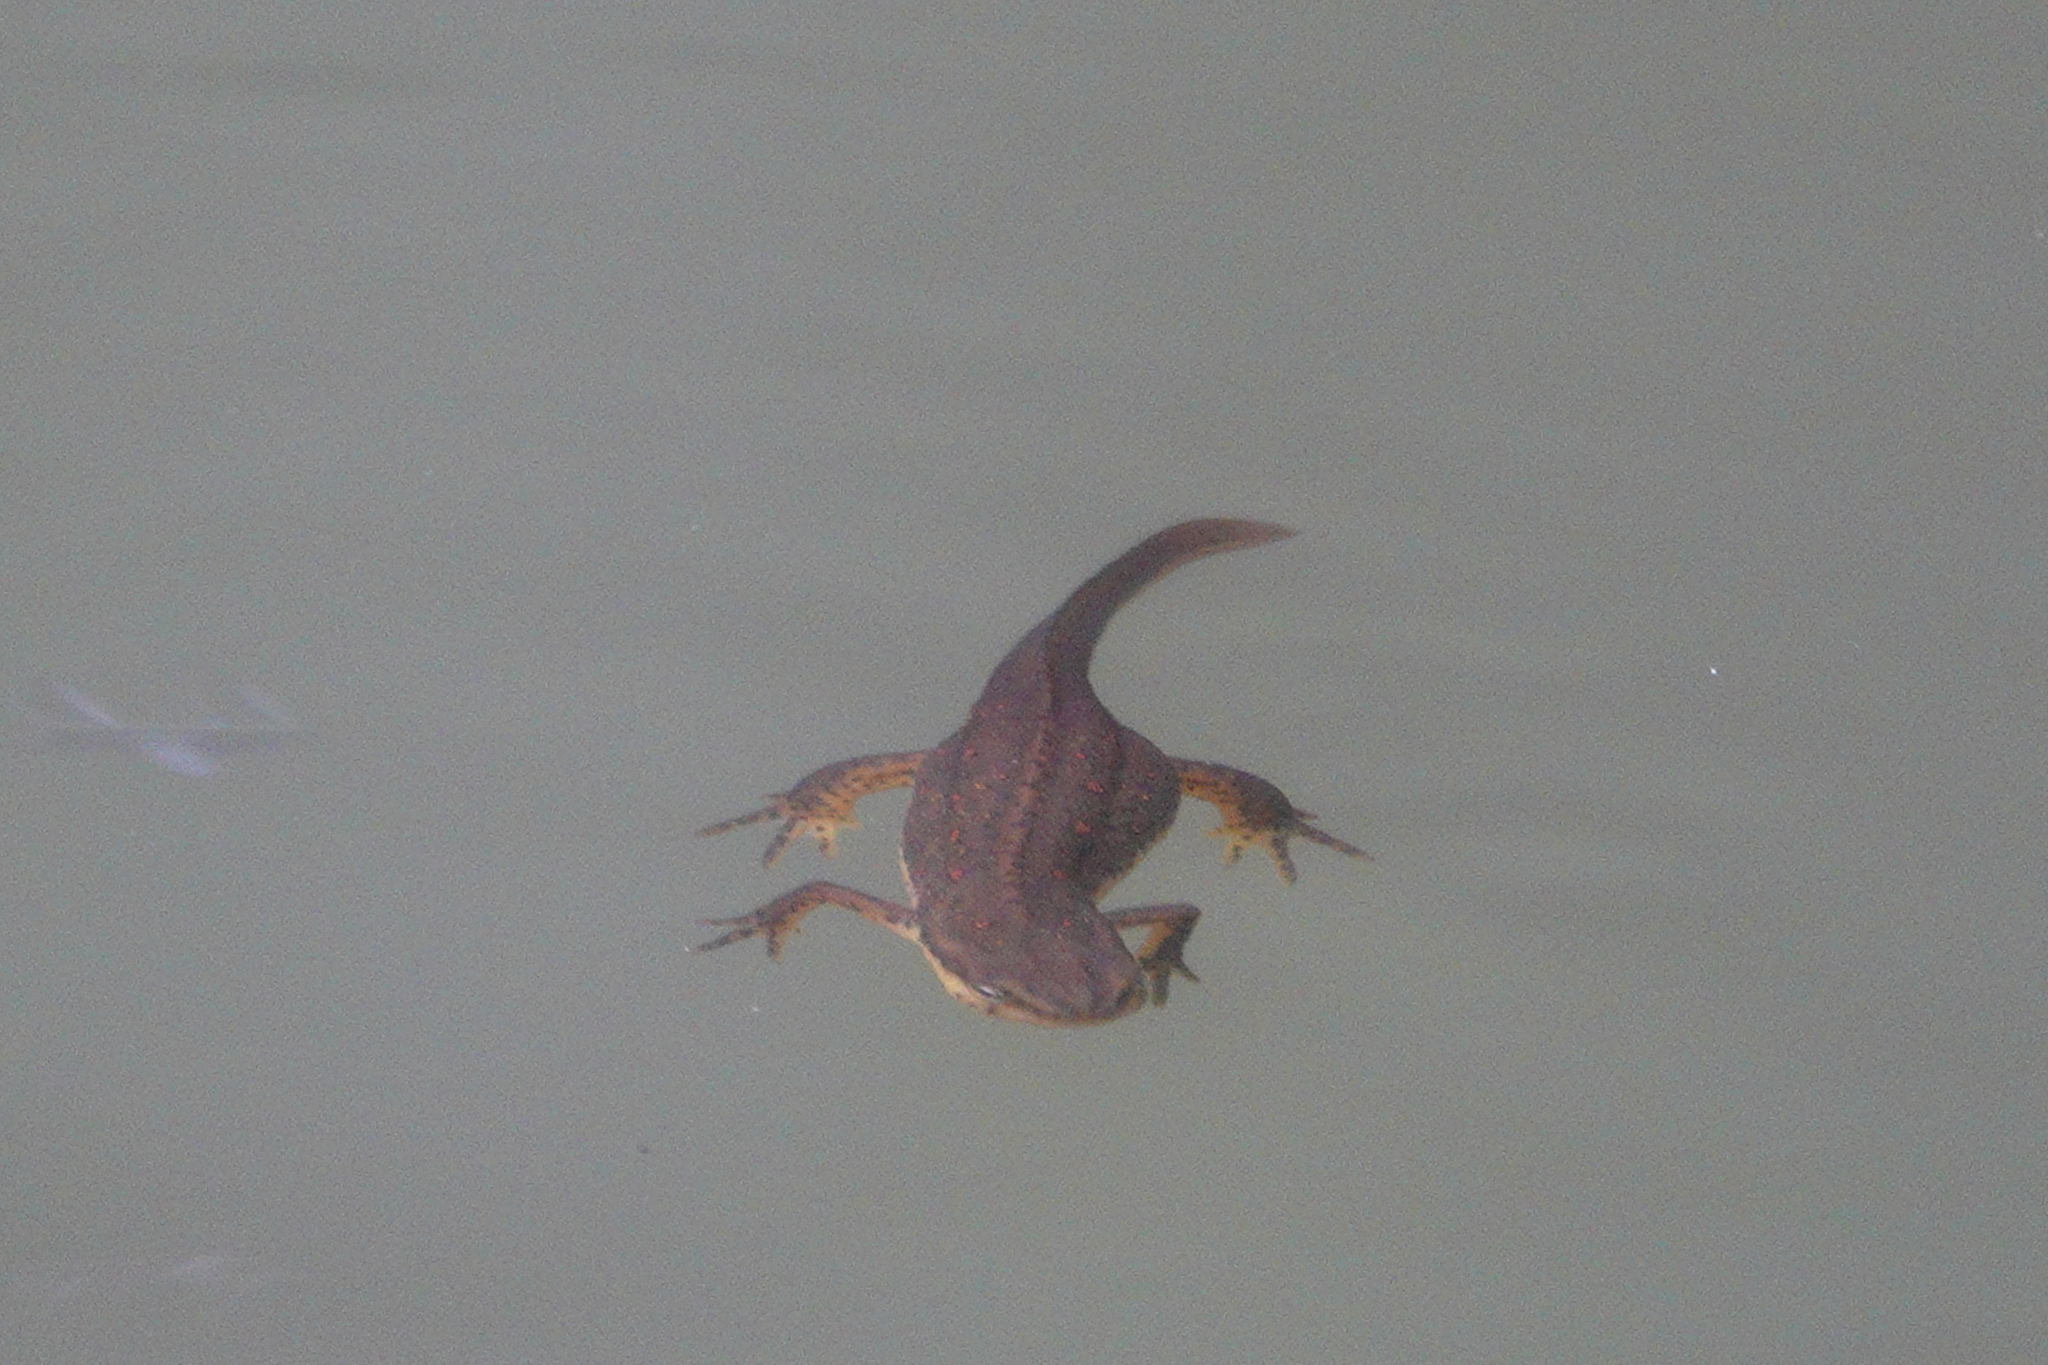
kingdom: Animalia
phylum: Chordata
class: Amphibia
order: Caudata
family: Salamandridae
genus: Notophthalmus
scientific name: Notophthalmus viridescens
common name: Eastern newt
